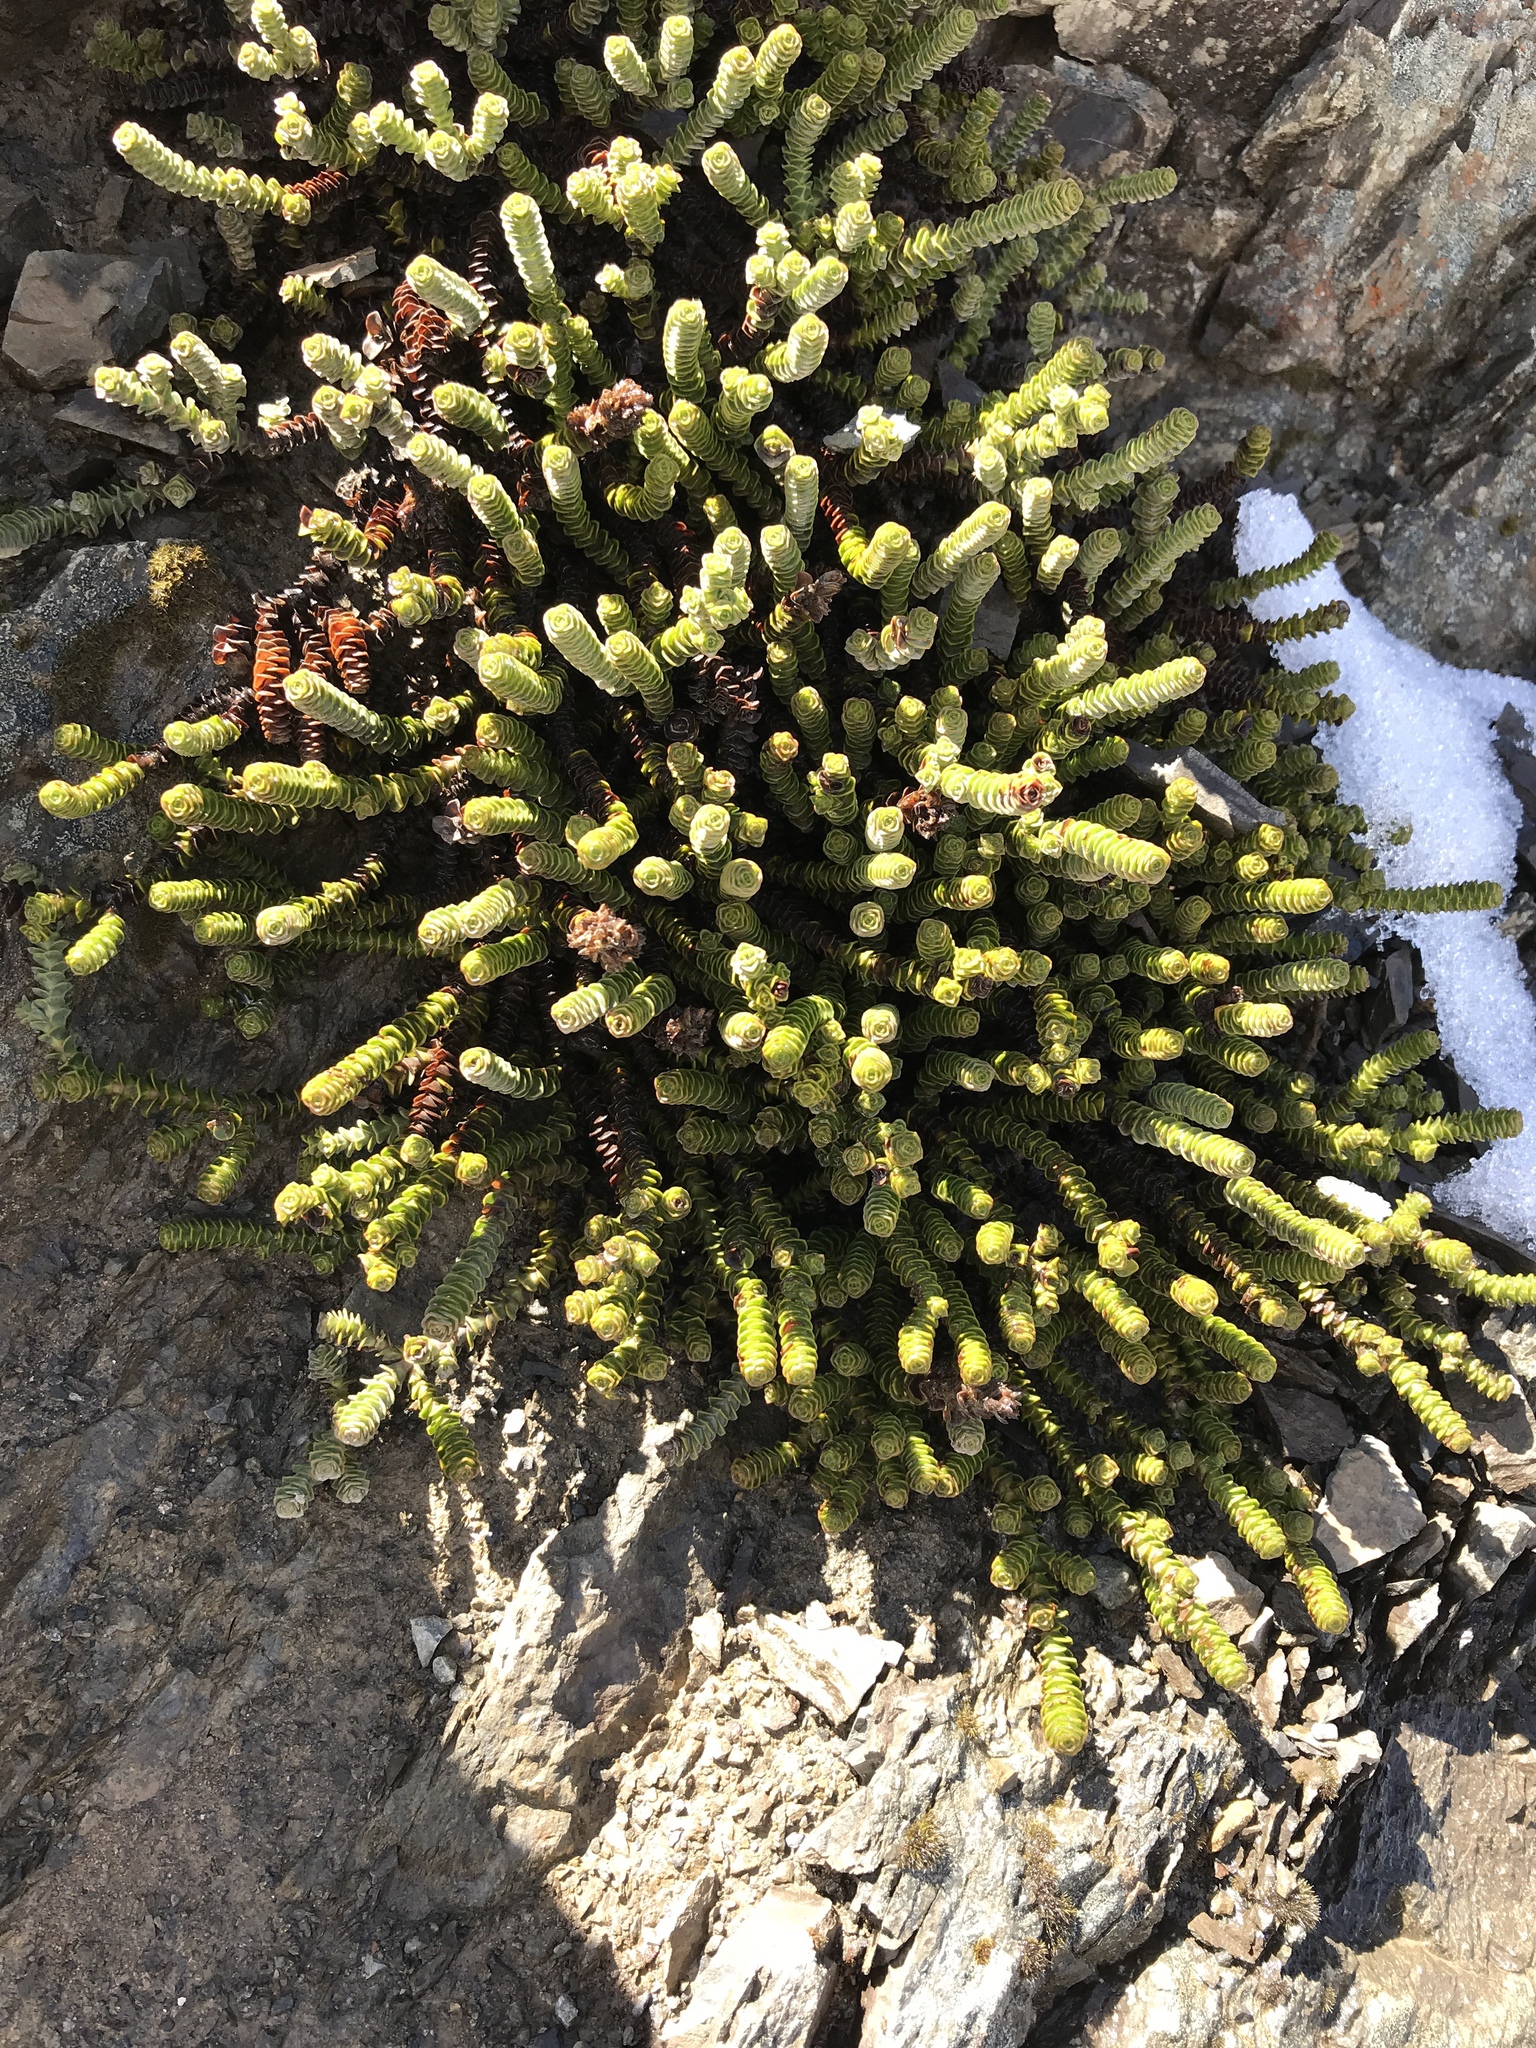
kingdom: Plantae
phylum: Tracheophyta
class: Magnoliopsida
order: Lamiales
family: Plantaginaceae
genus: Veronica
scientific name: Veronica epacridea
